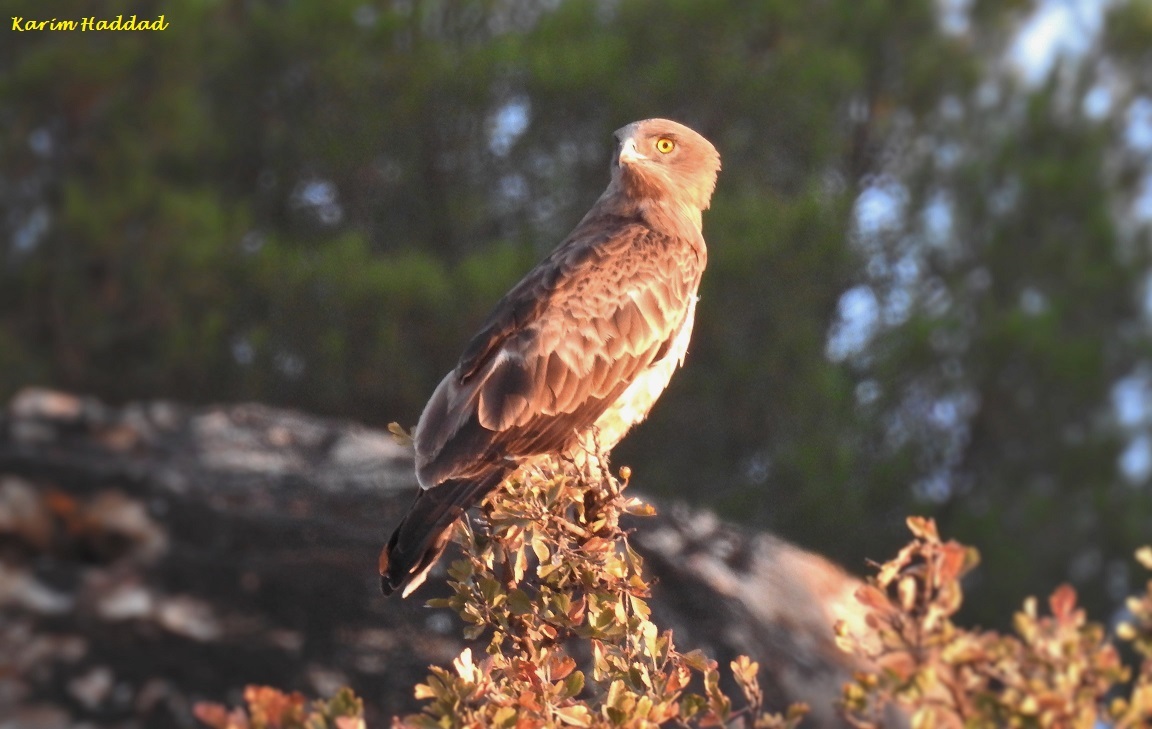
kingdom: Animalia
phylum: Chordata
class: Aves
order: Accipitriformes
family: Accipitridae
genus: Circaetus
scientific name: Circaetus gallicus
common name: Short-toed snake eagle
